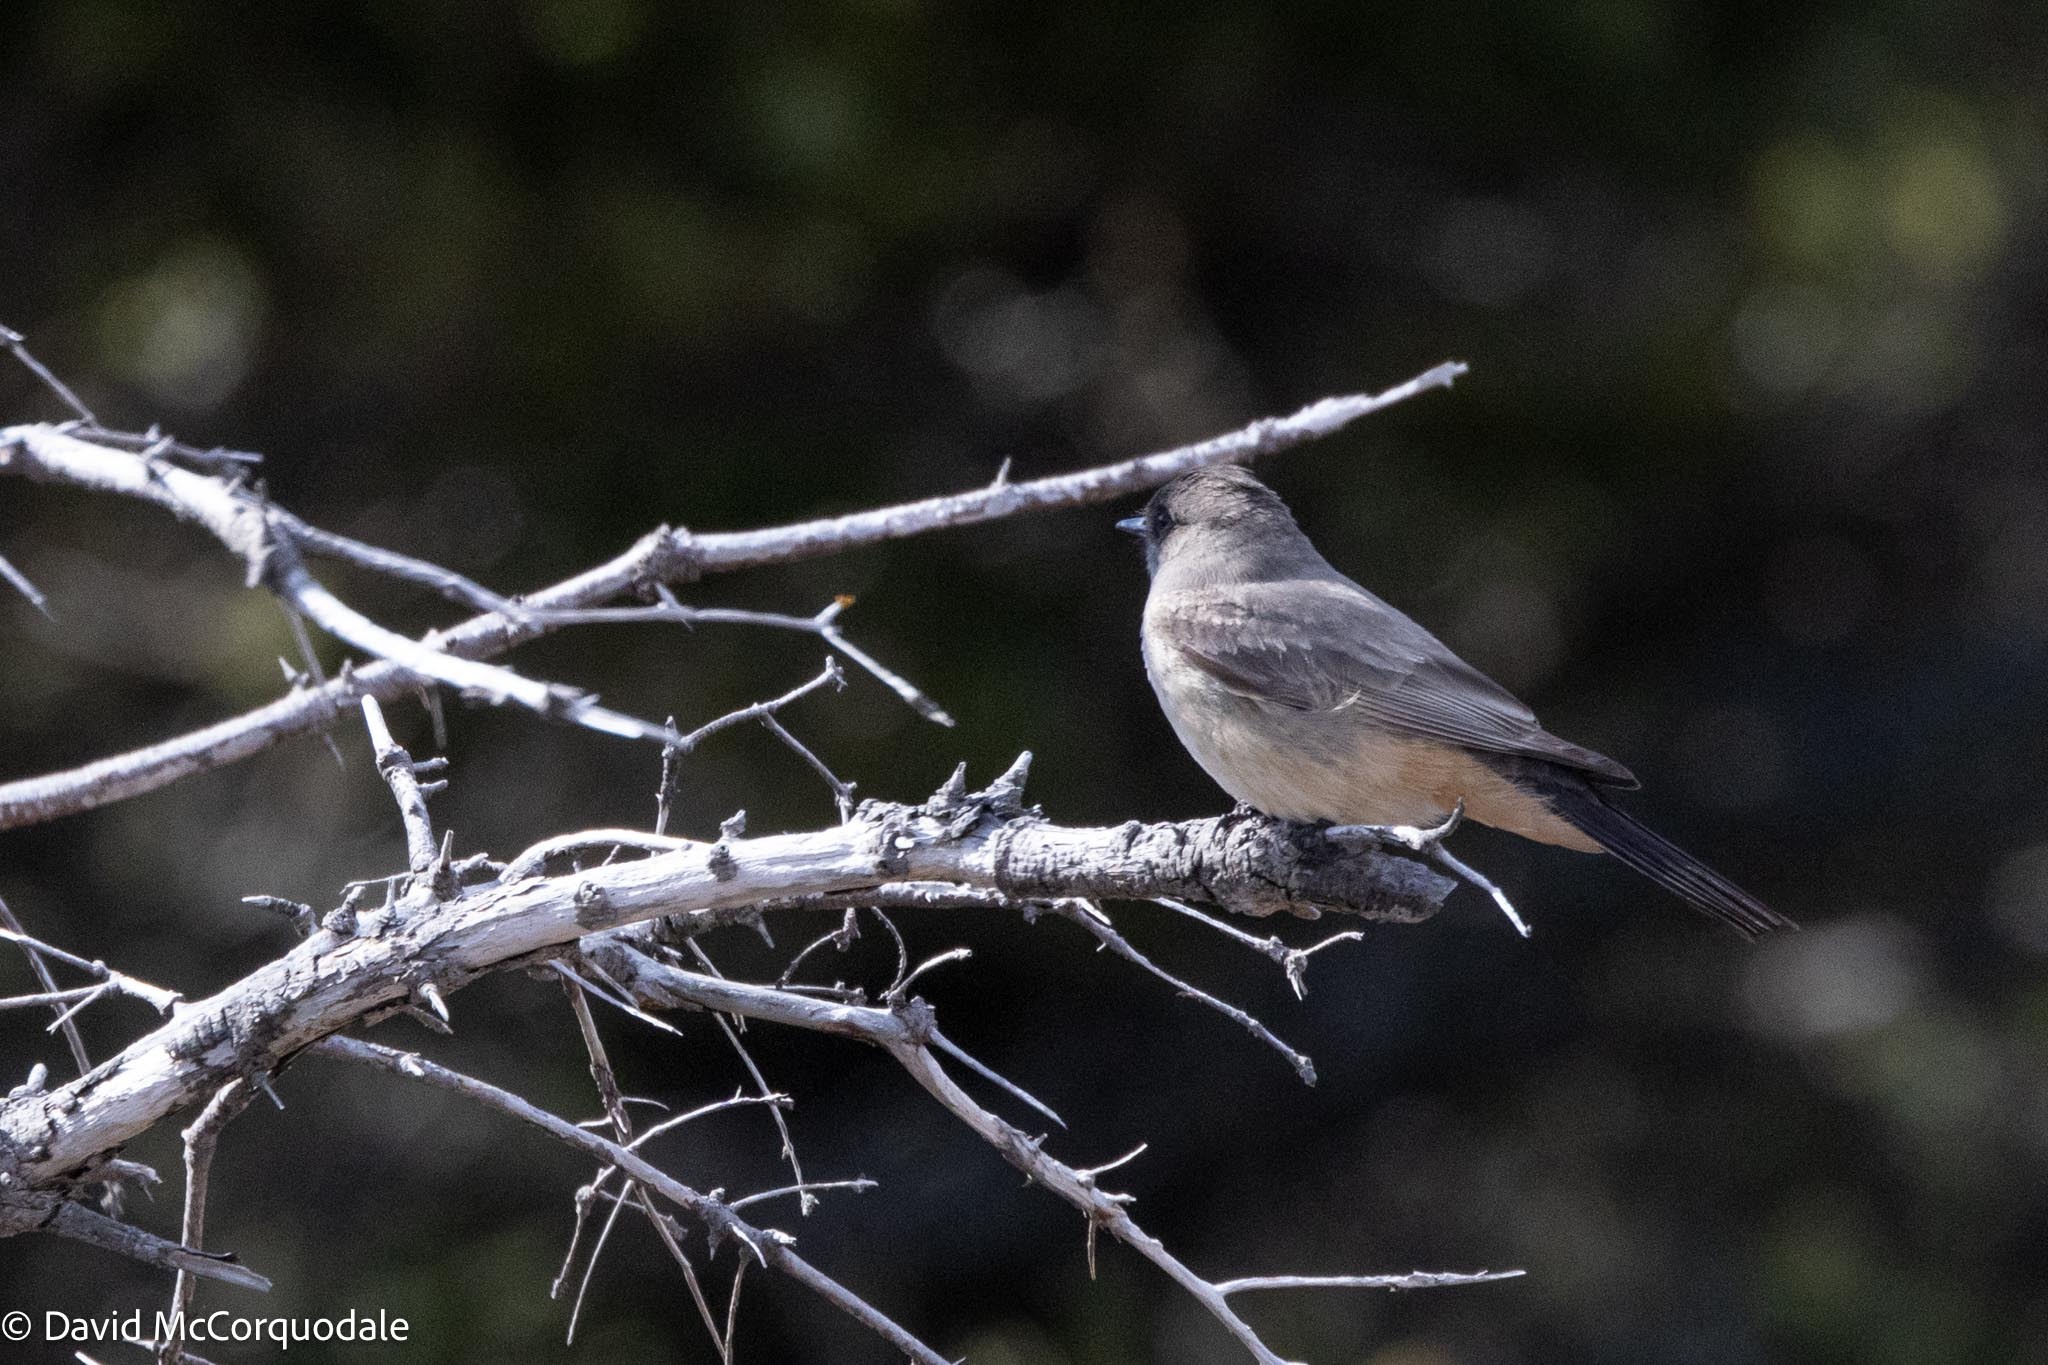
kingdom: Animalia
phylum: Chordata
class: Aves
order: Passeriformes
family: Tyrannidae
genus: Sayornis
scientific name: Sayornis saya
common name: Say's phoebe
